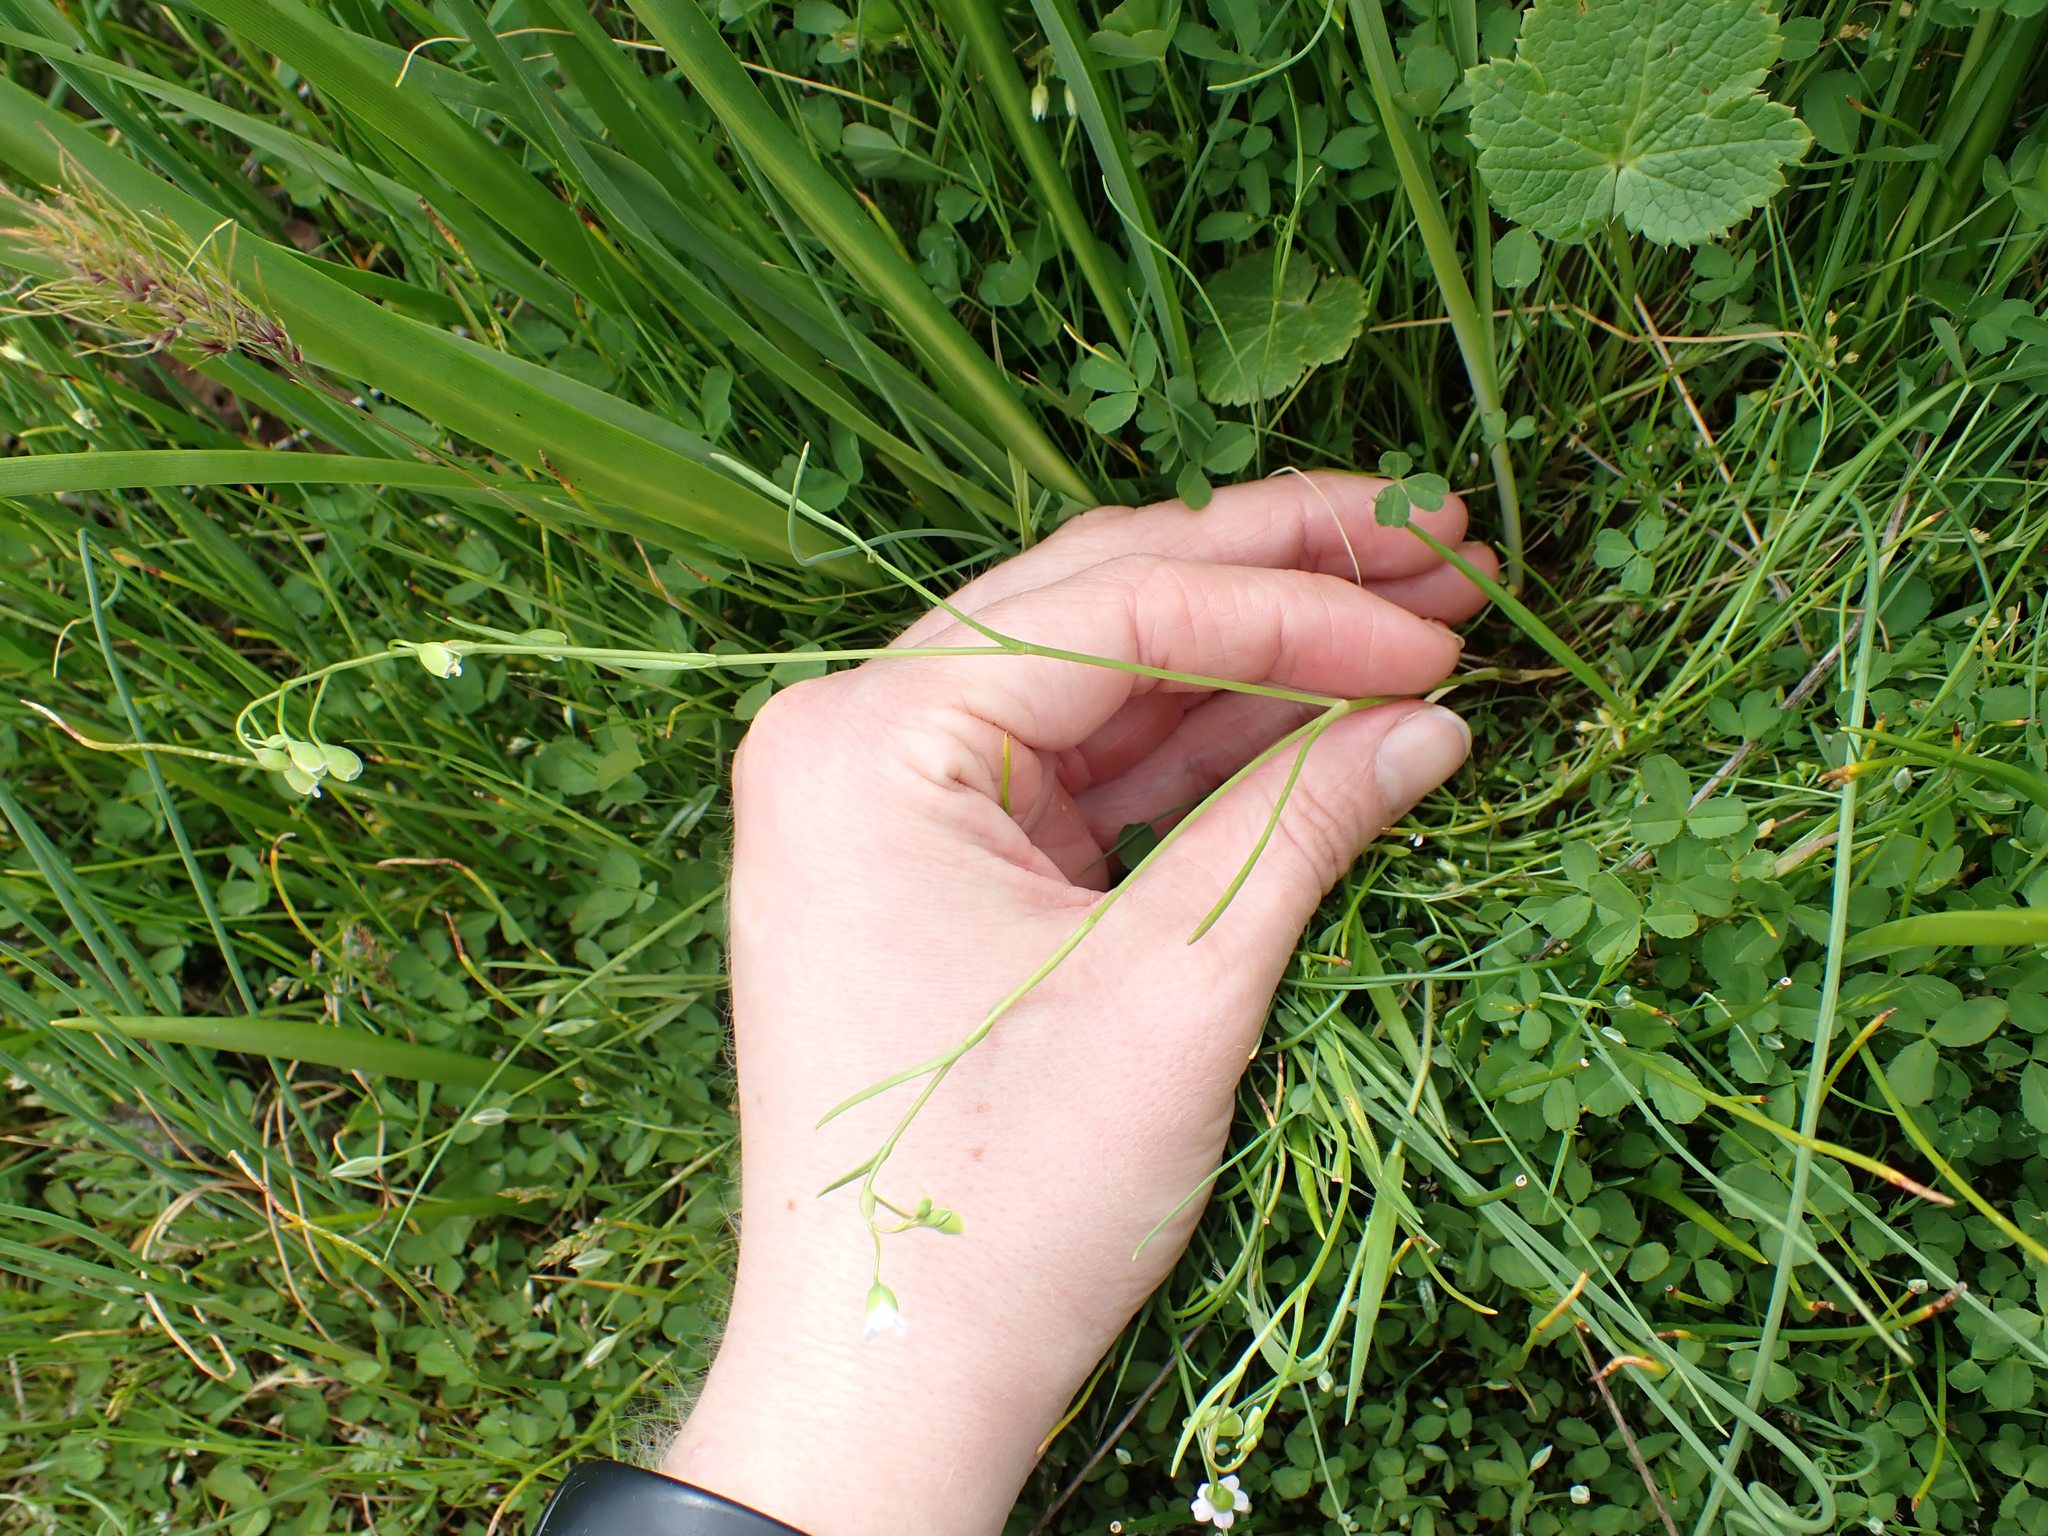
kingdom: Plantae
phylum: Tracheophyta
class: Magnoliopsida
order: Caryophyllales
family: Montiaceae
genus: Montia
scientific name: Montia linearis
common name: Narrow-leaf montia
